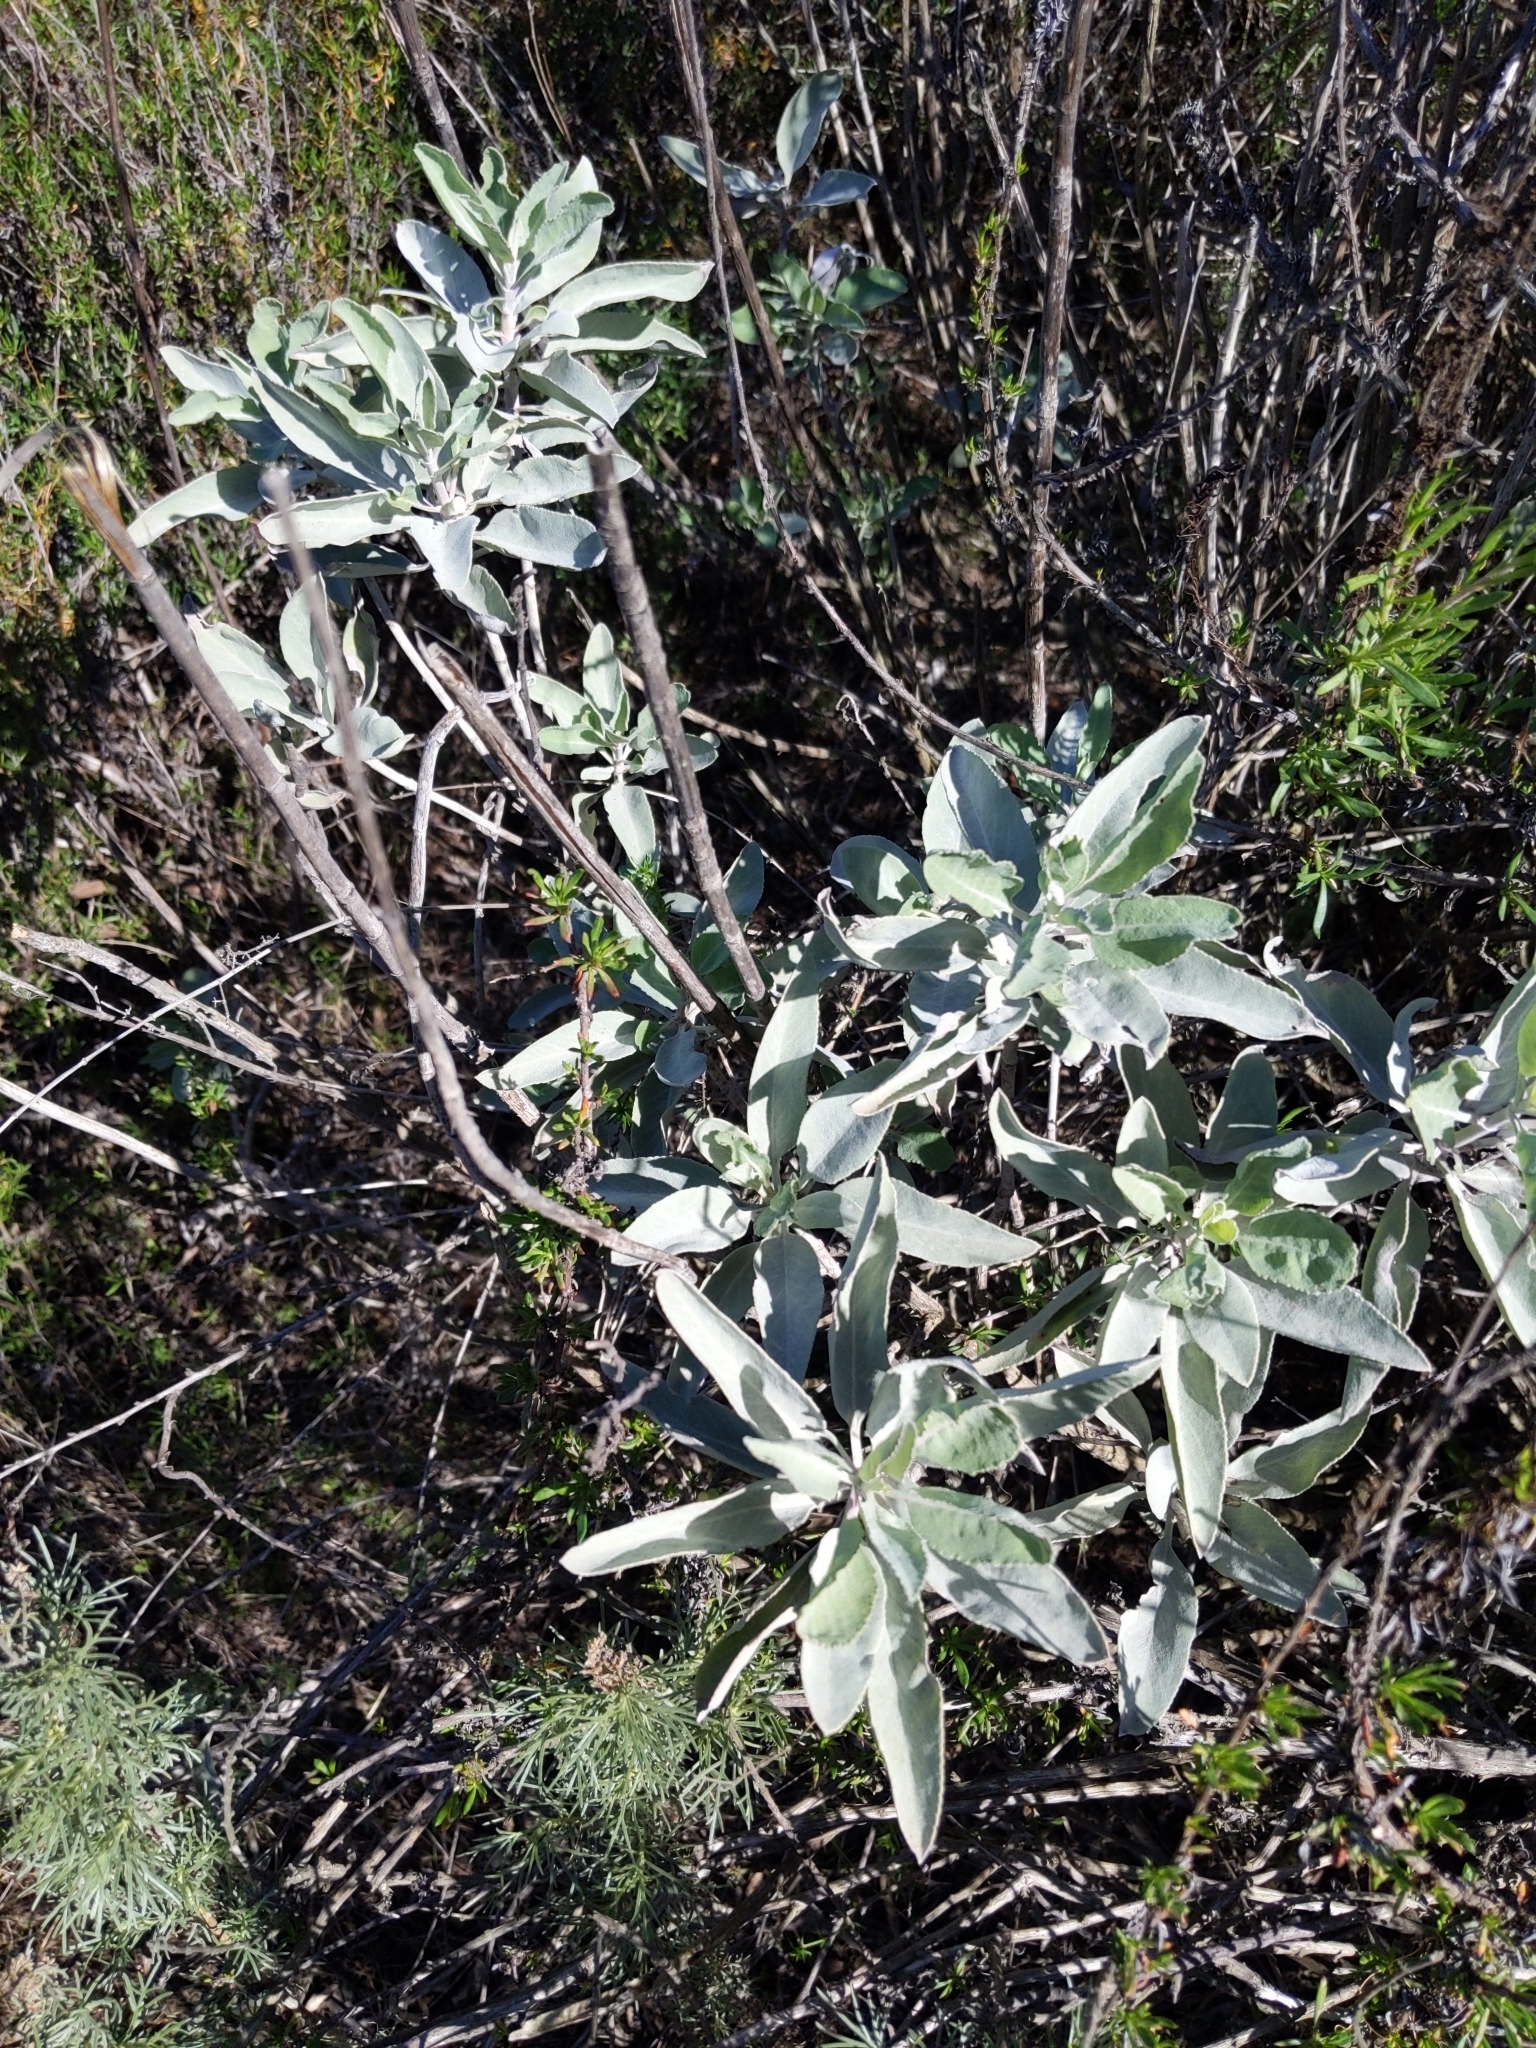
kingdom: Plantae
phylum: Tracheophyta
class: Magnoliopsida
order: Lamiales
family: Lamiaceae
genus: Salvia
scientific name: Salvia apiana
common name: White sage
